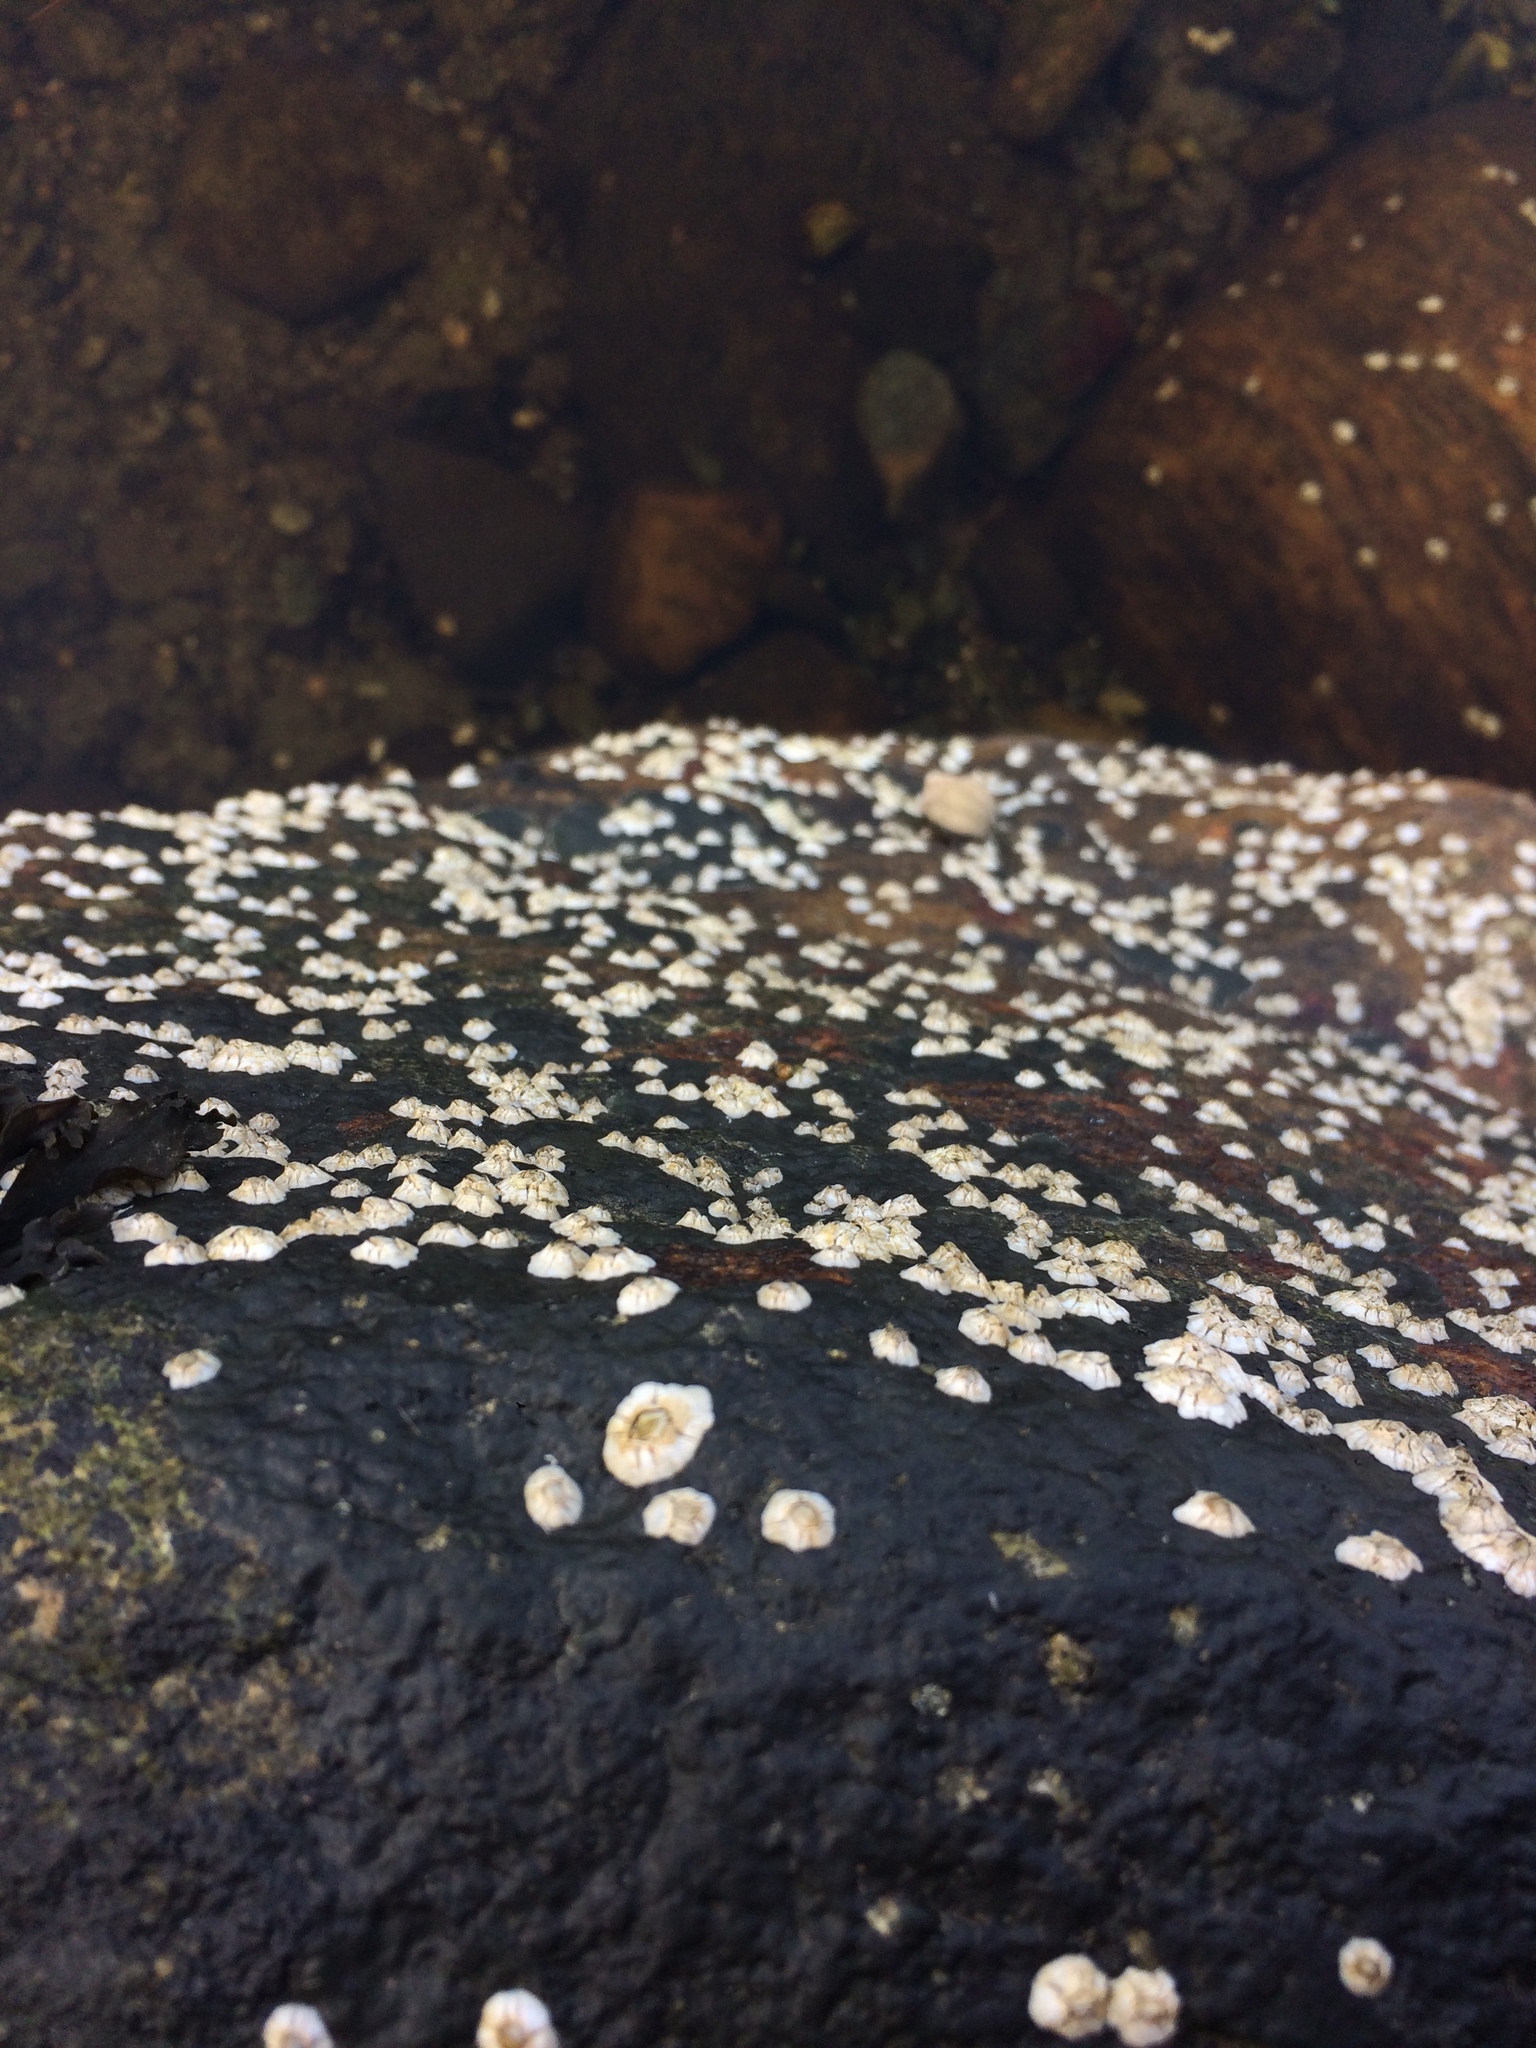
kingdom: Animalia
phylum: Arthropoda
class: Maxillopoda
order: Sessilia
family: Archaeobalanidae
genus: Semibalanus
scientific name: Semibalanus balanoides
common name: Acorn barnacle
